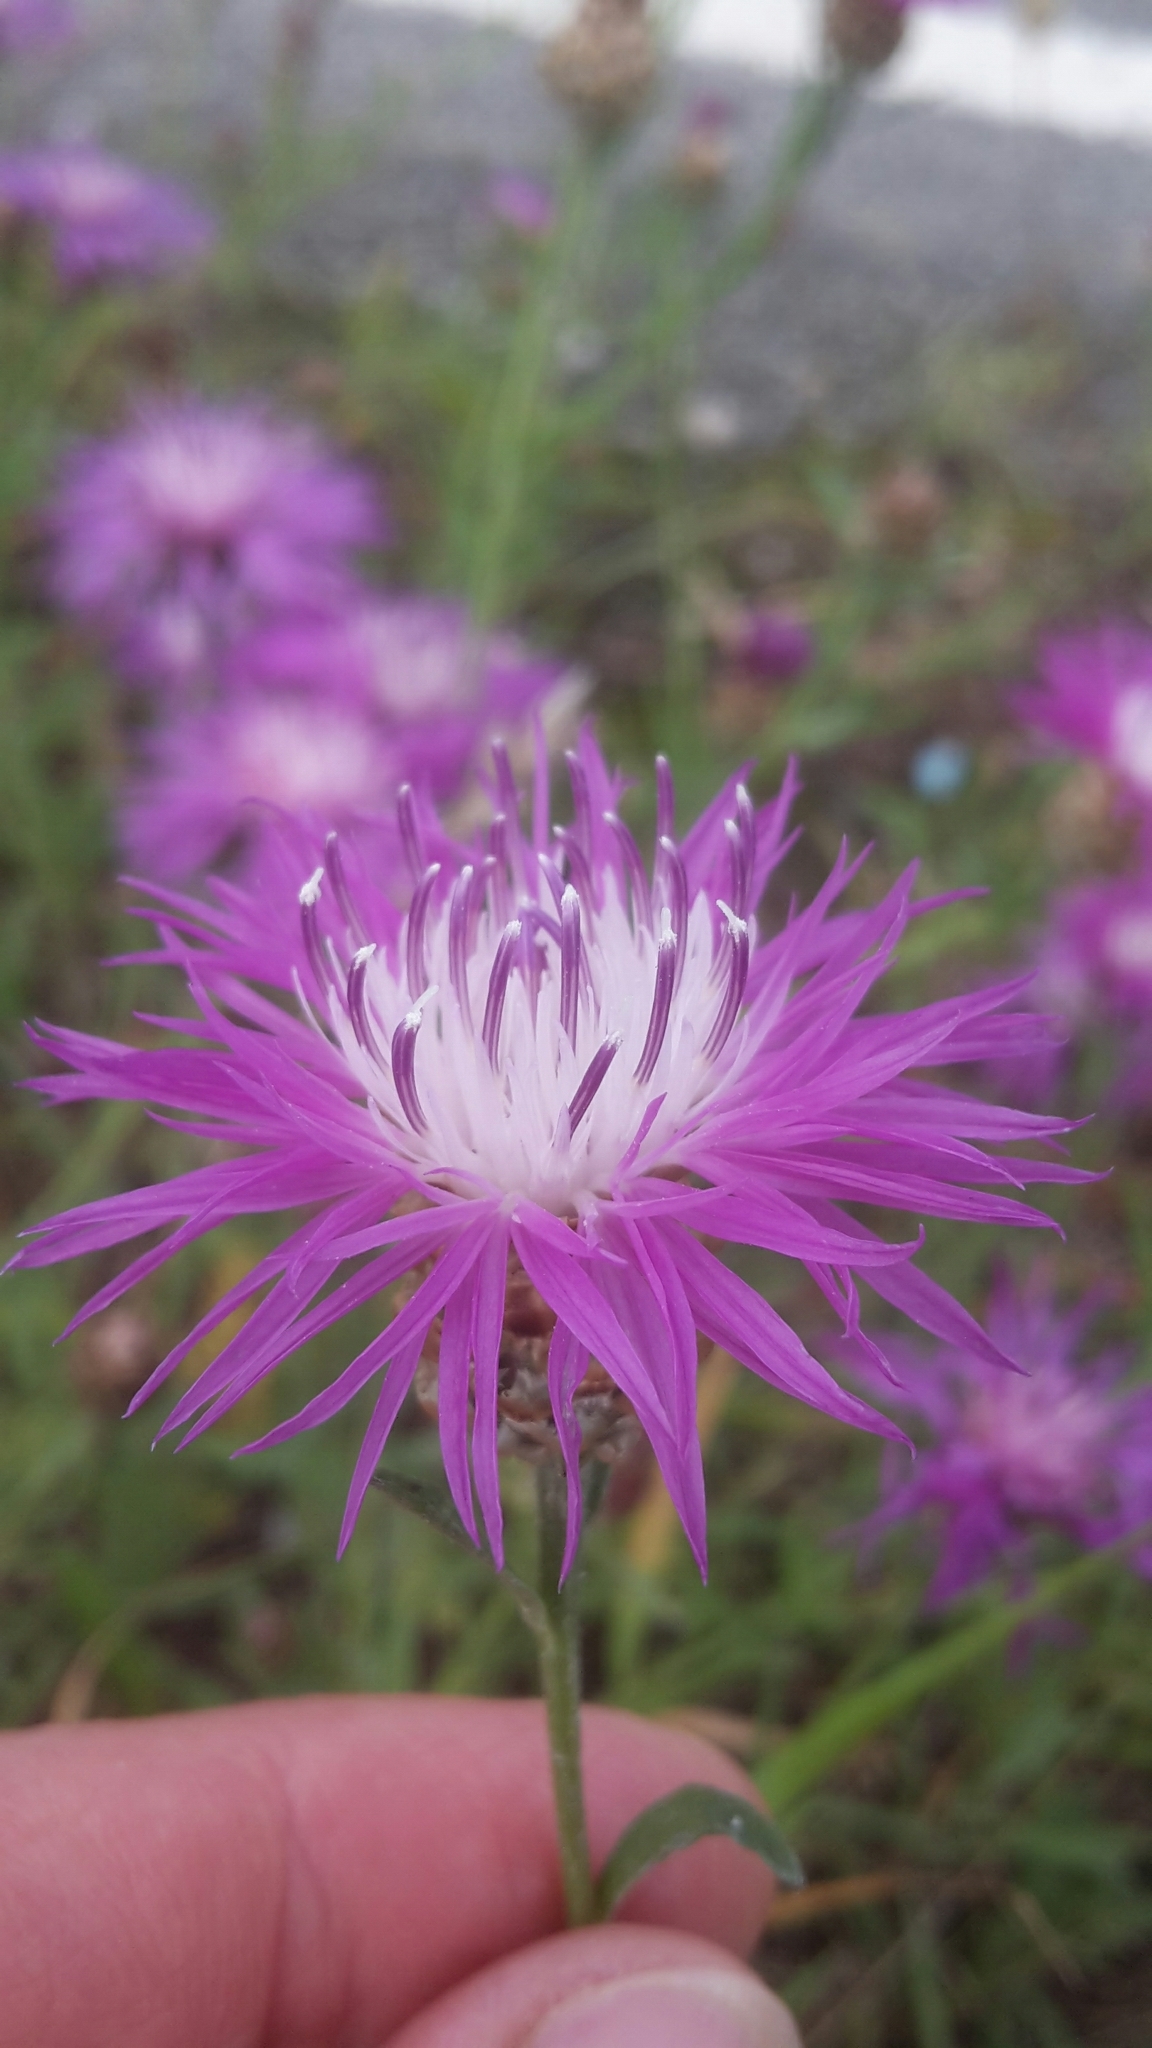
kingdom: Plantae
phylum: Tracheophyta
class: Magnoliopsida
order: Asterales
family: Asteraceae
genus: Centaurea
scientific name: Centaurea jacea
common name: Brown knapweed
